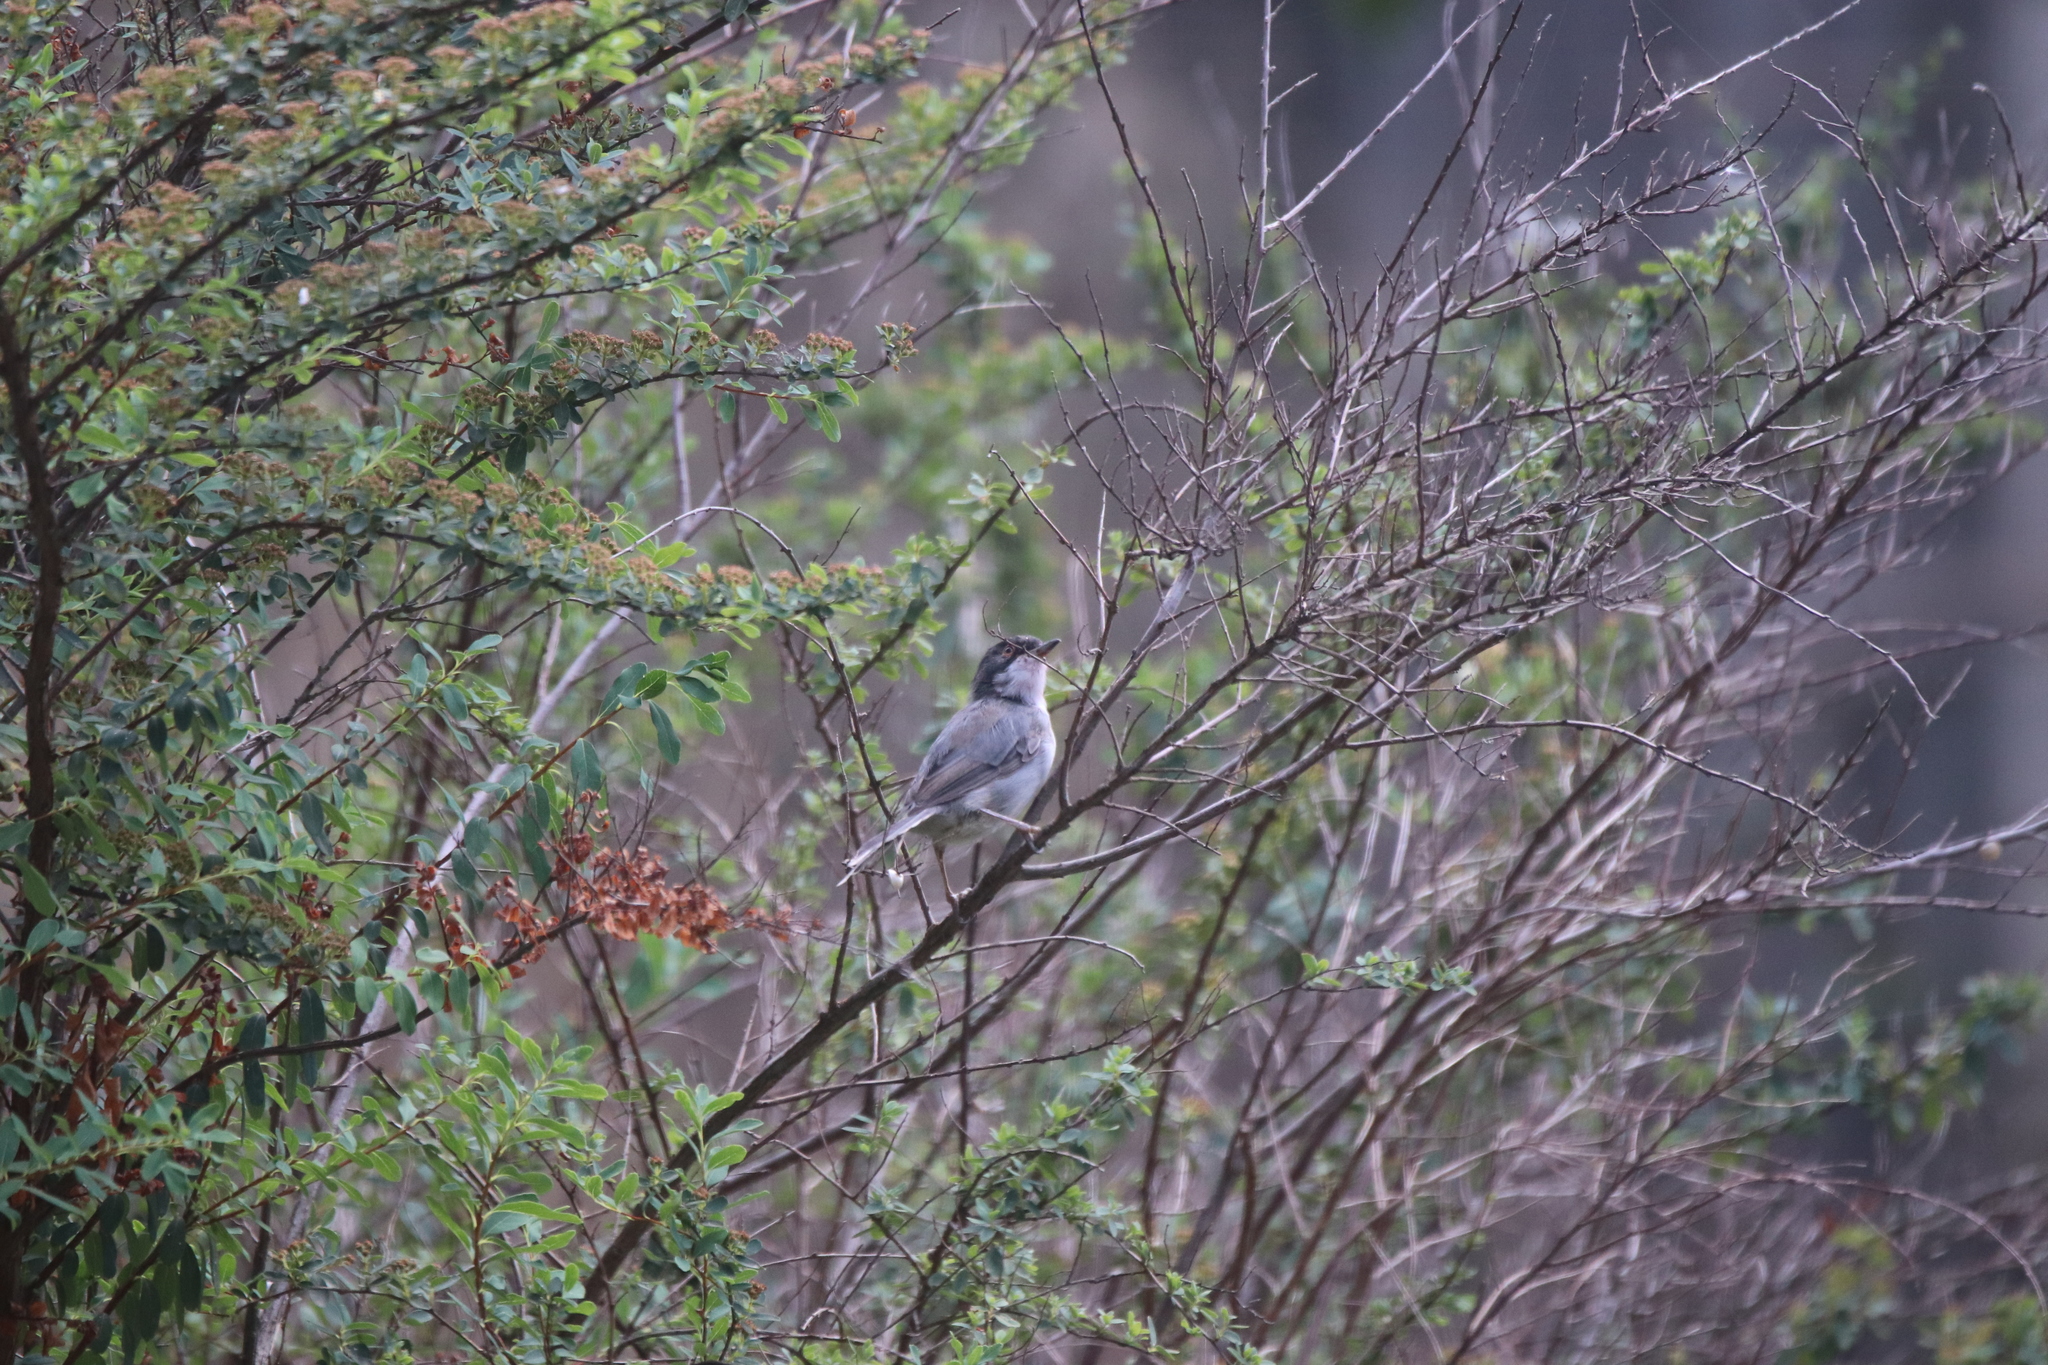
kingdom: Animalia
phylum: Chordata
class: Aves
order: Passeriformes
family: Sylviidae
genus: Curruca
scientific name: Curruca melanocephala
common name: Sardinian warbler
